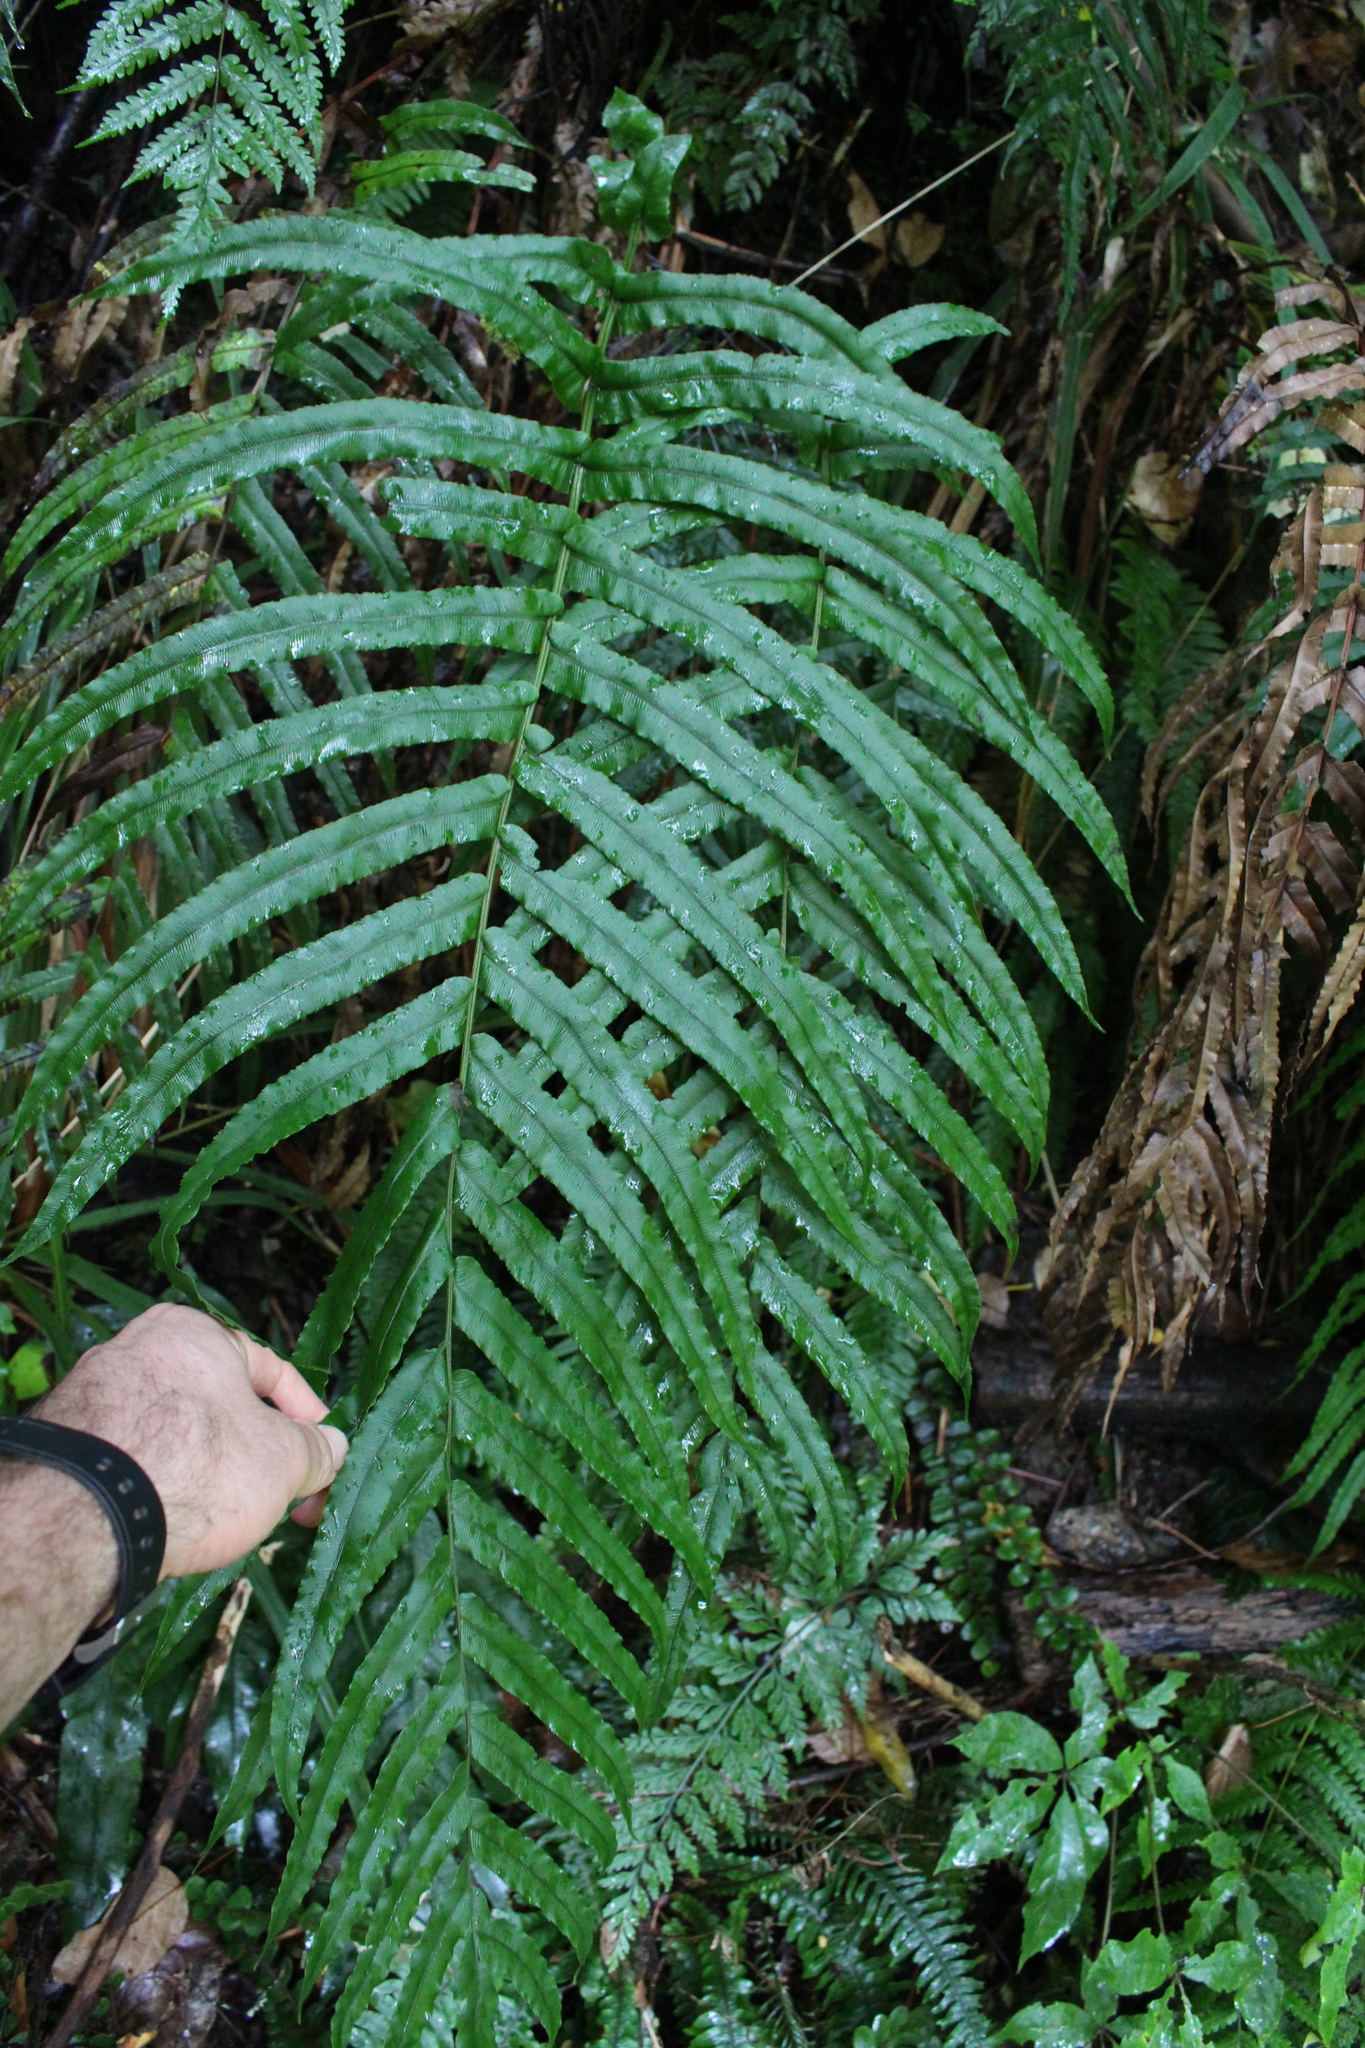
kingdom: Plantae
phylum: Tracheophyta
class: Polypodiopsida
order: Polypodiales
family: Blechnaceae
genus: Parablechnum
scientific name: Parablechnum novae-zelandiae
